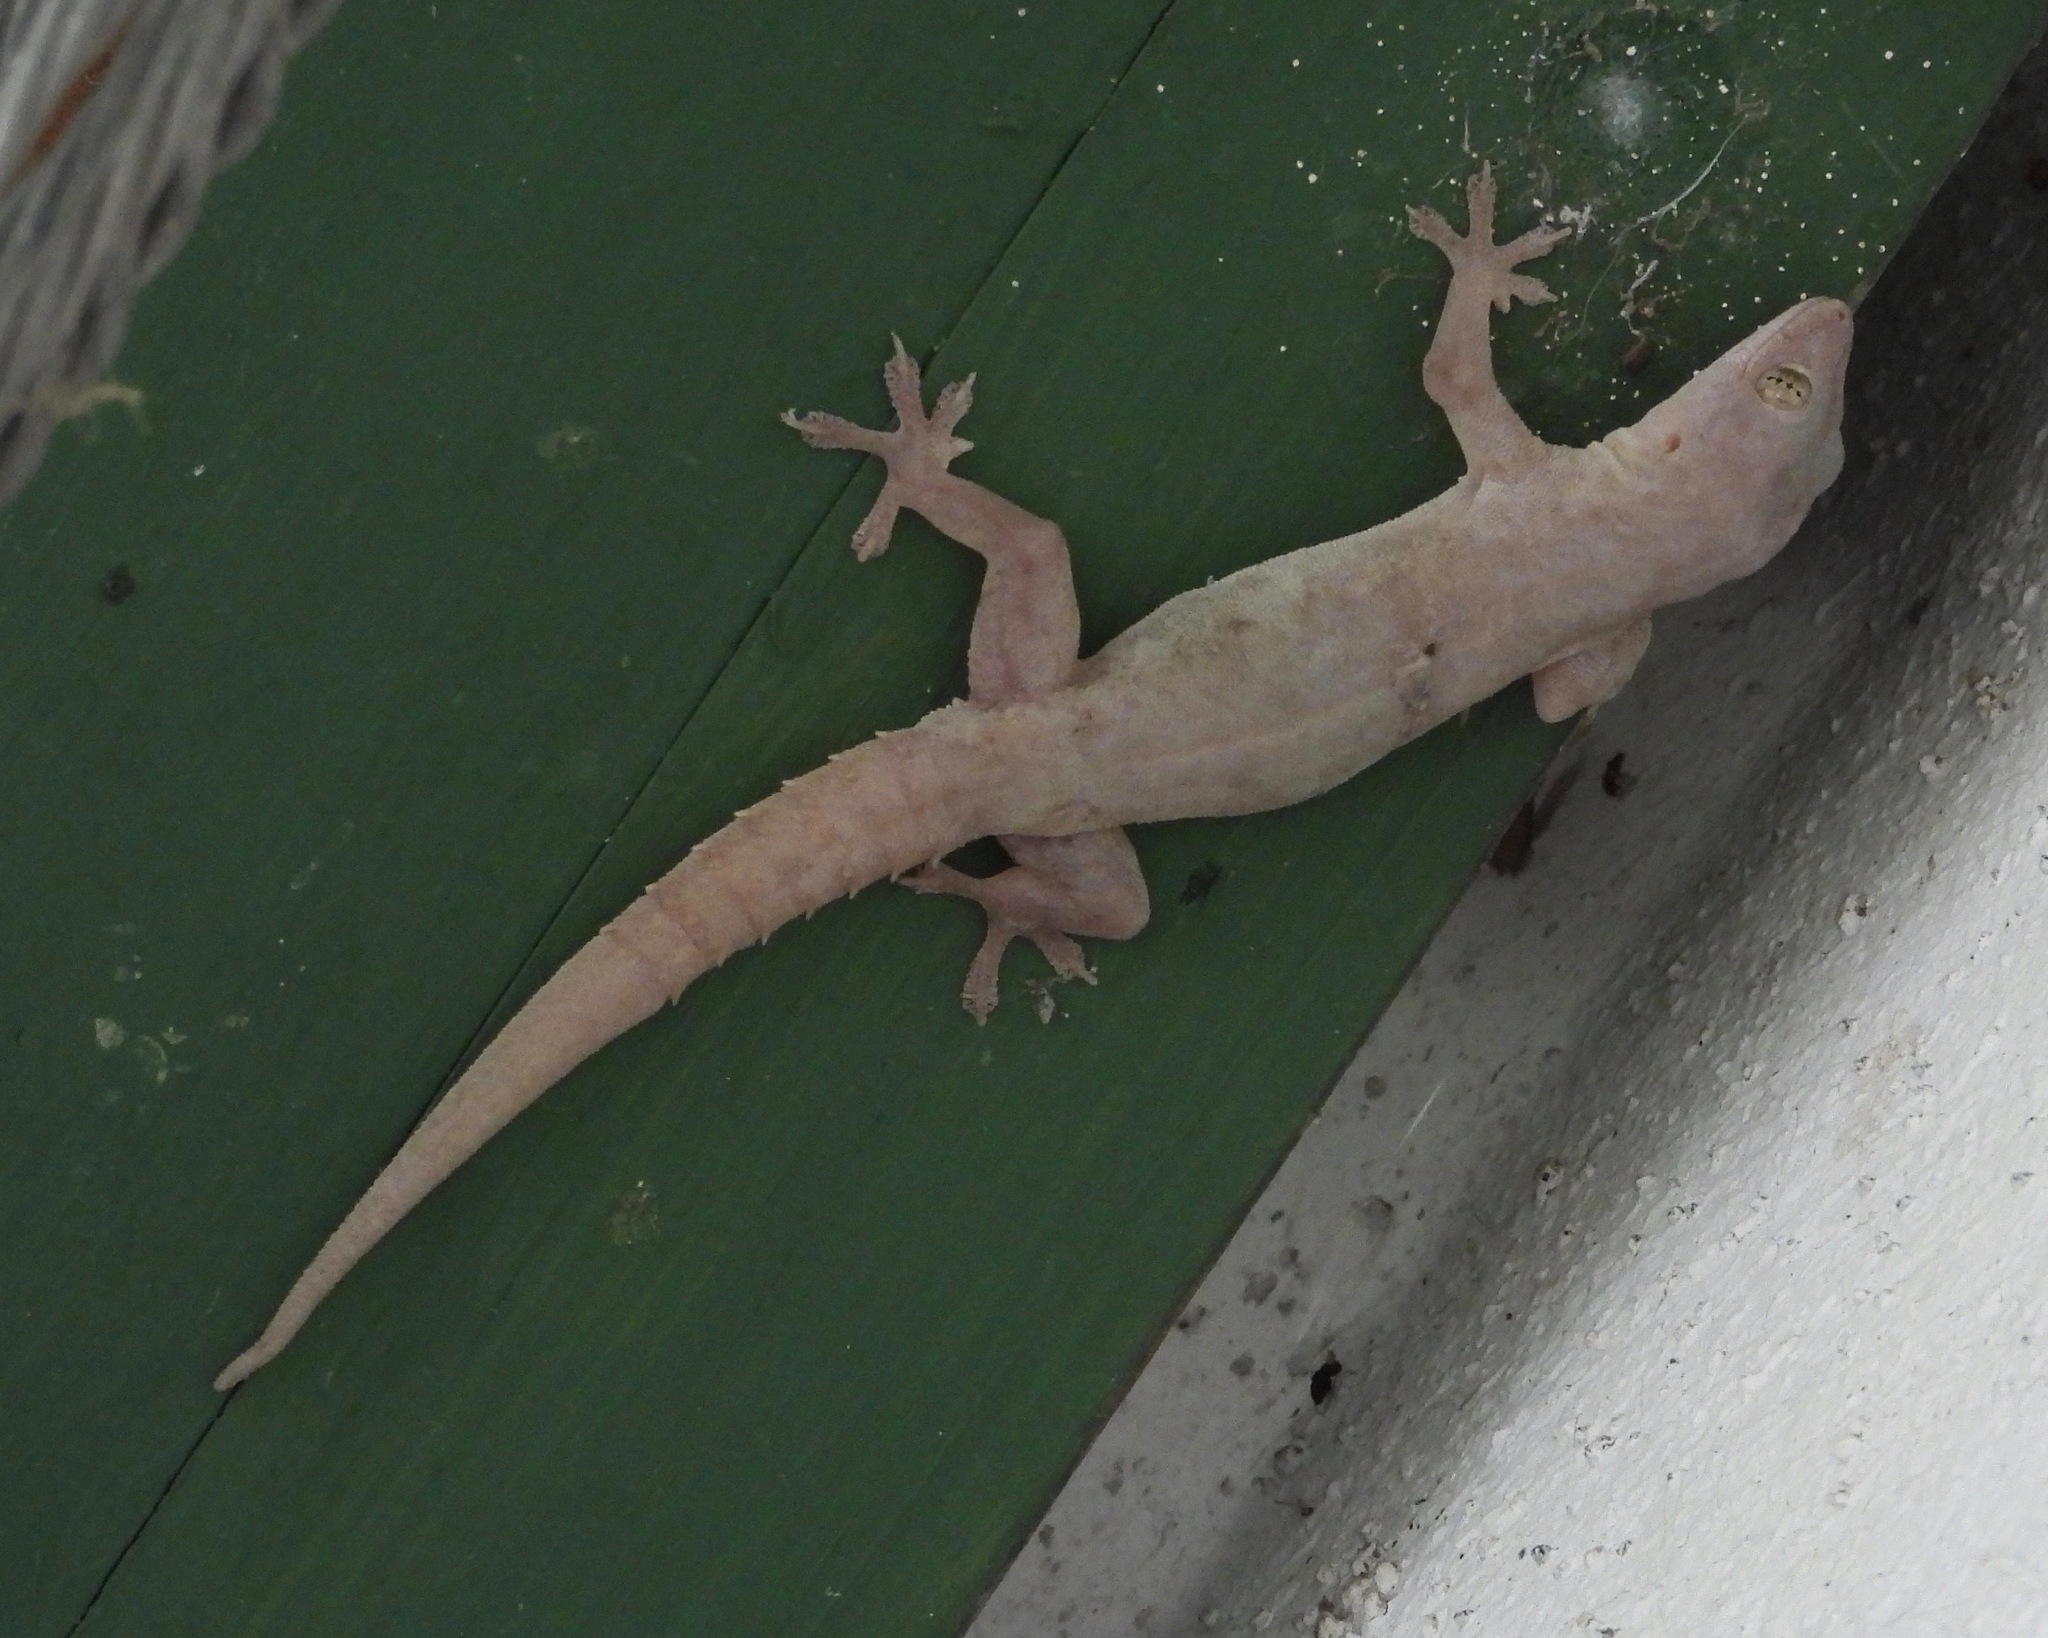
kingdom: Animalia
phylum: Chordata
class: Squamata
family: Gekkonidae
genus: Hemidactylus
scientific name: Hemidactylus frenatus
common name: Common house gecko
